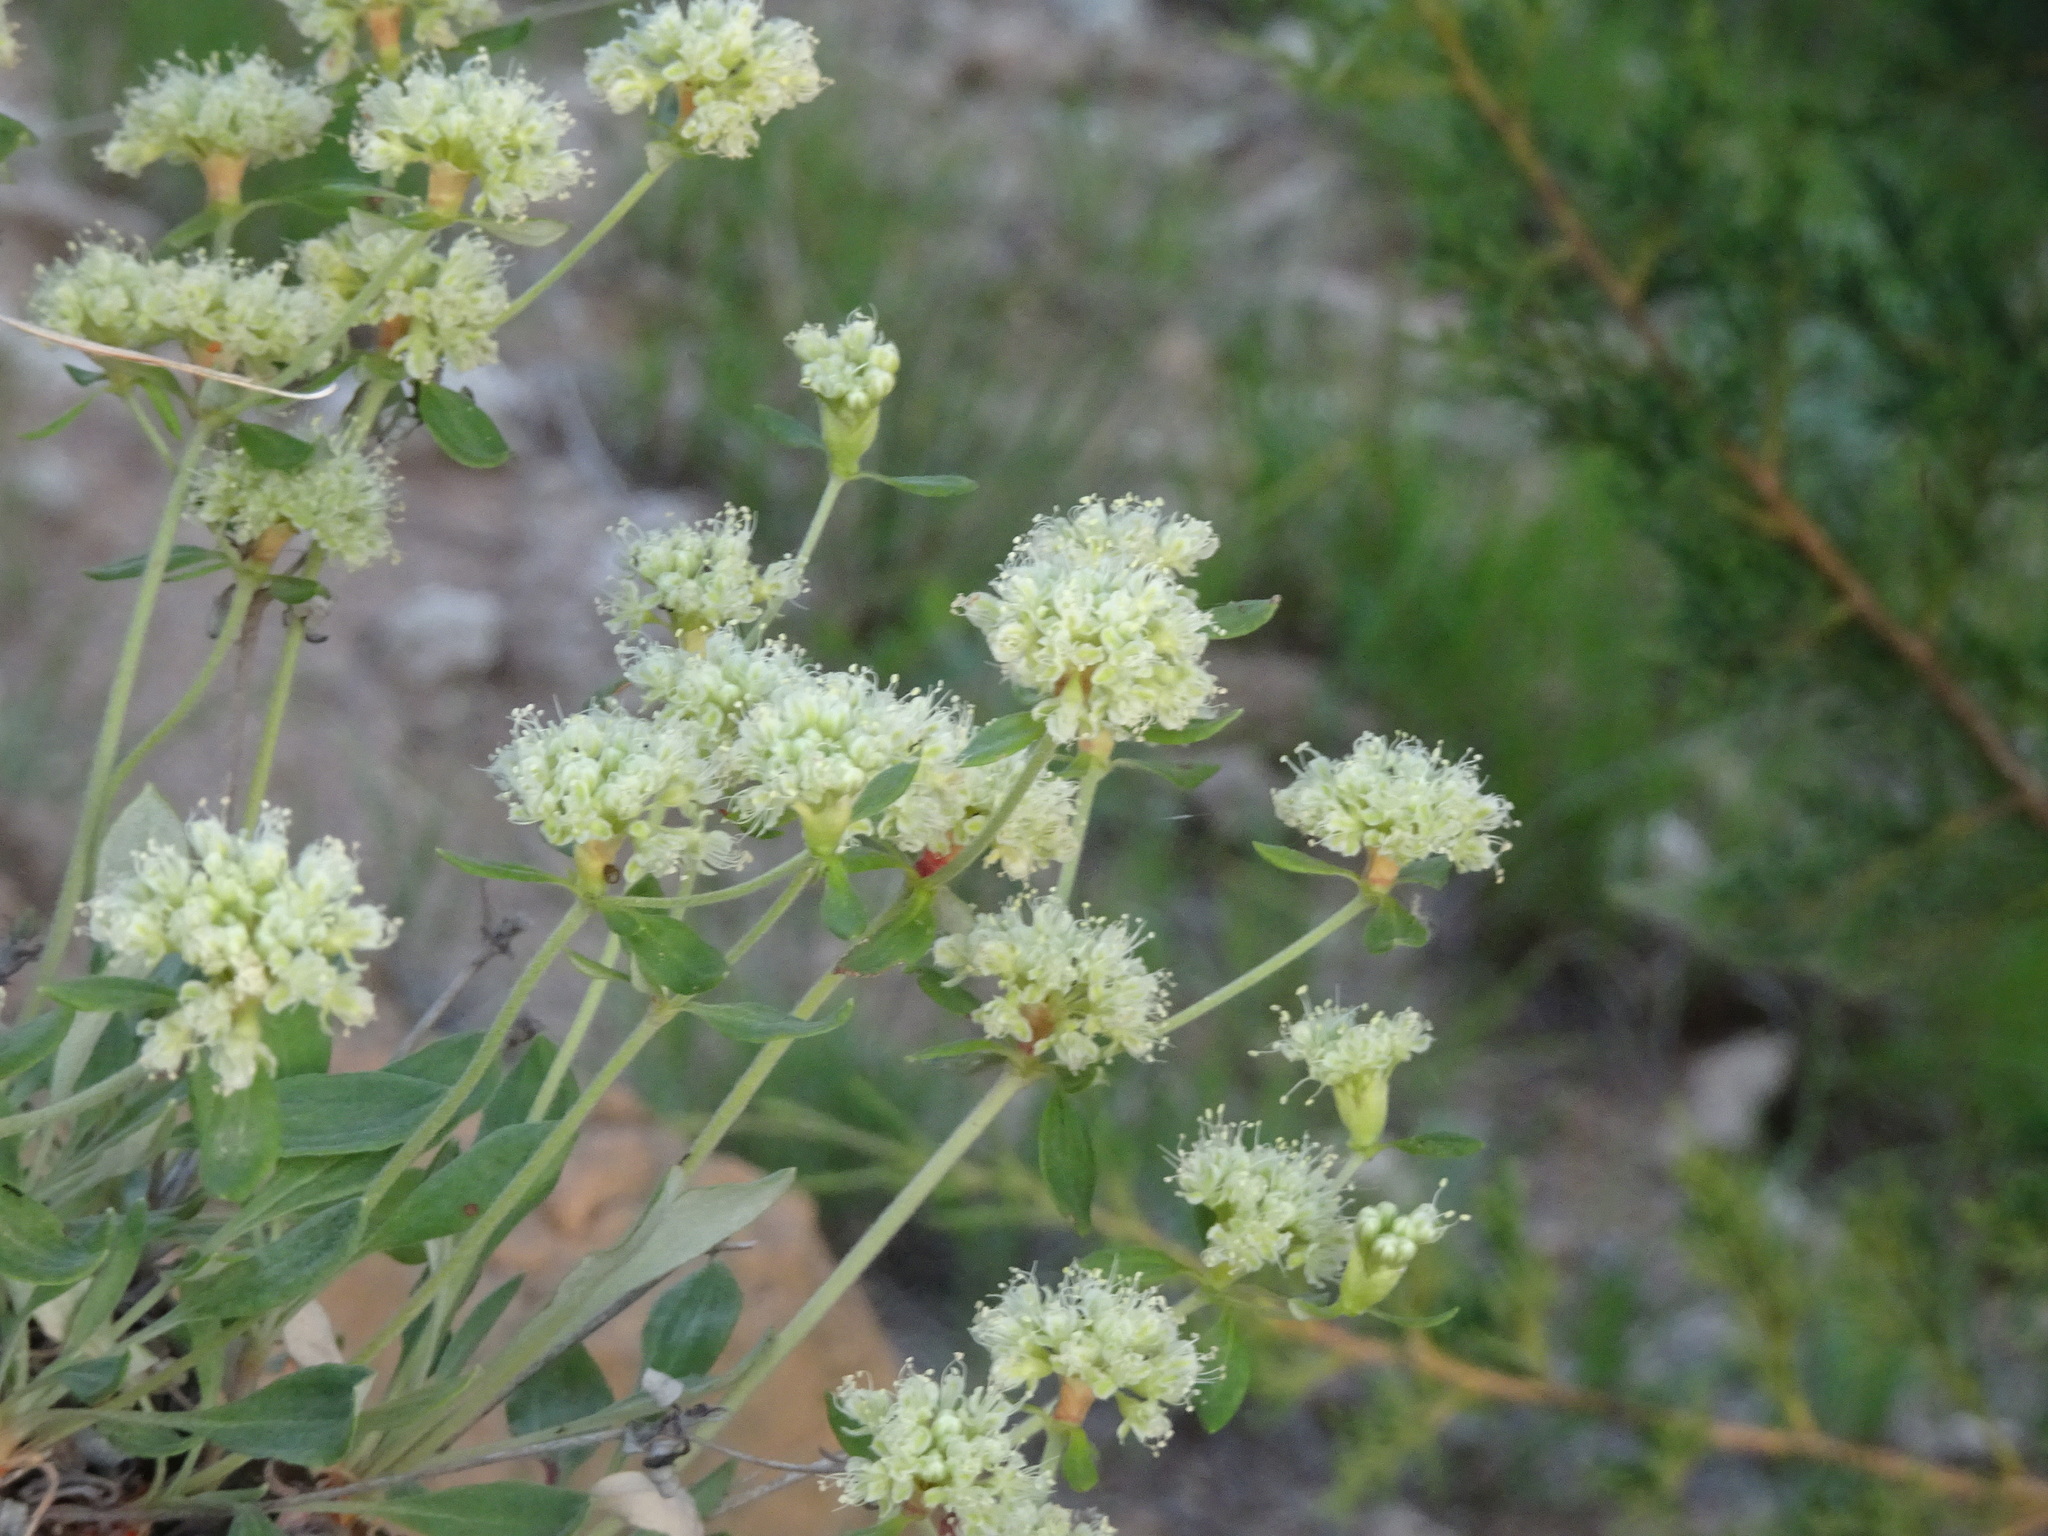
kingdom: Plantae
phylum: Tracheophyta
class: Magnoliopsida
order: Caryophyllales
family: Polygonaceae
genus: Eriogonum
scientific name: Eriogonum jamesii
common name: Antelope-sage
